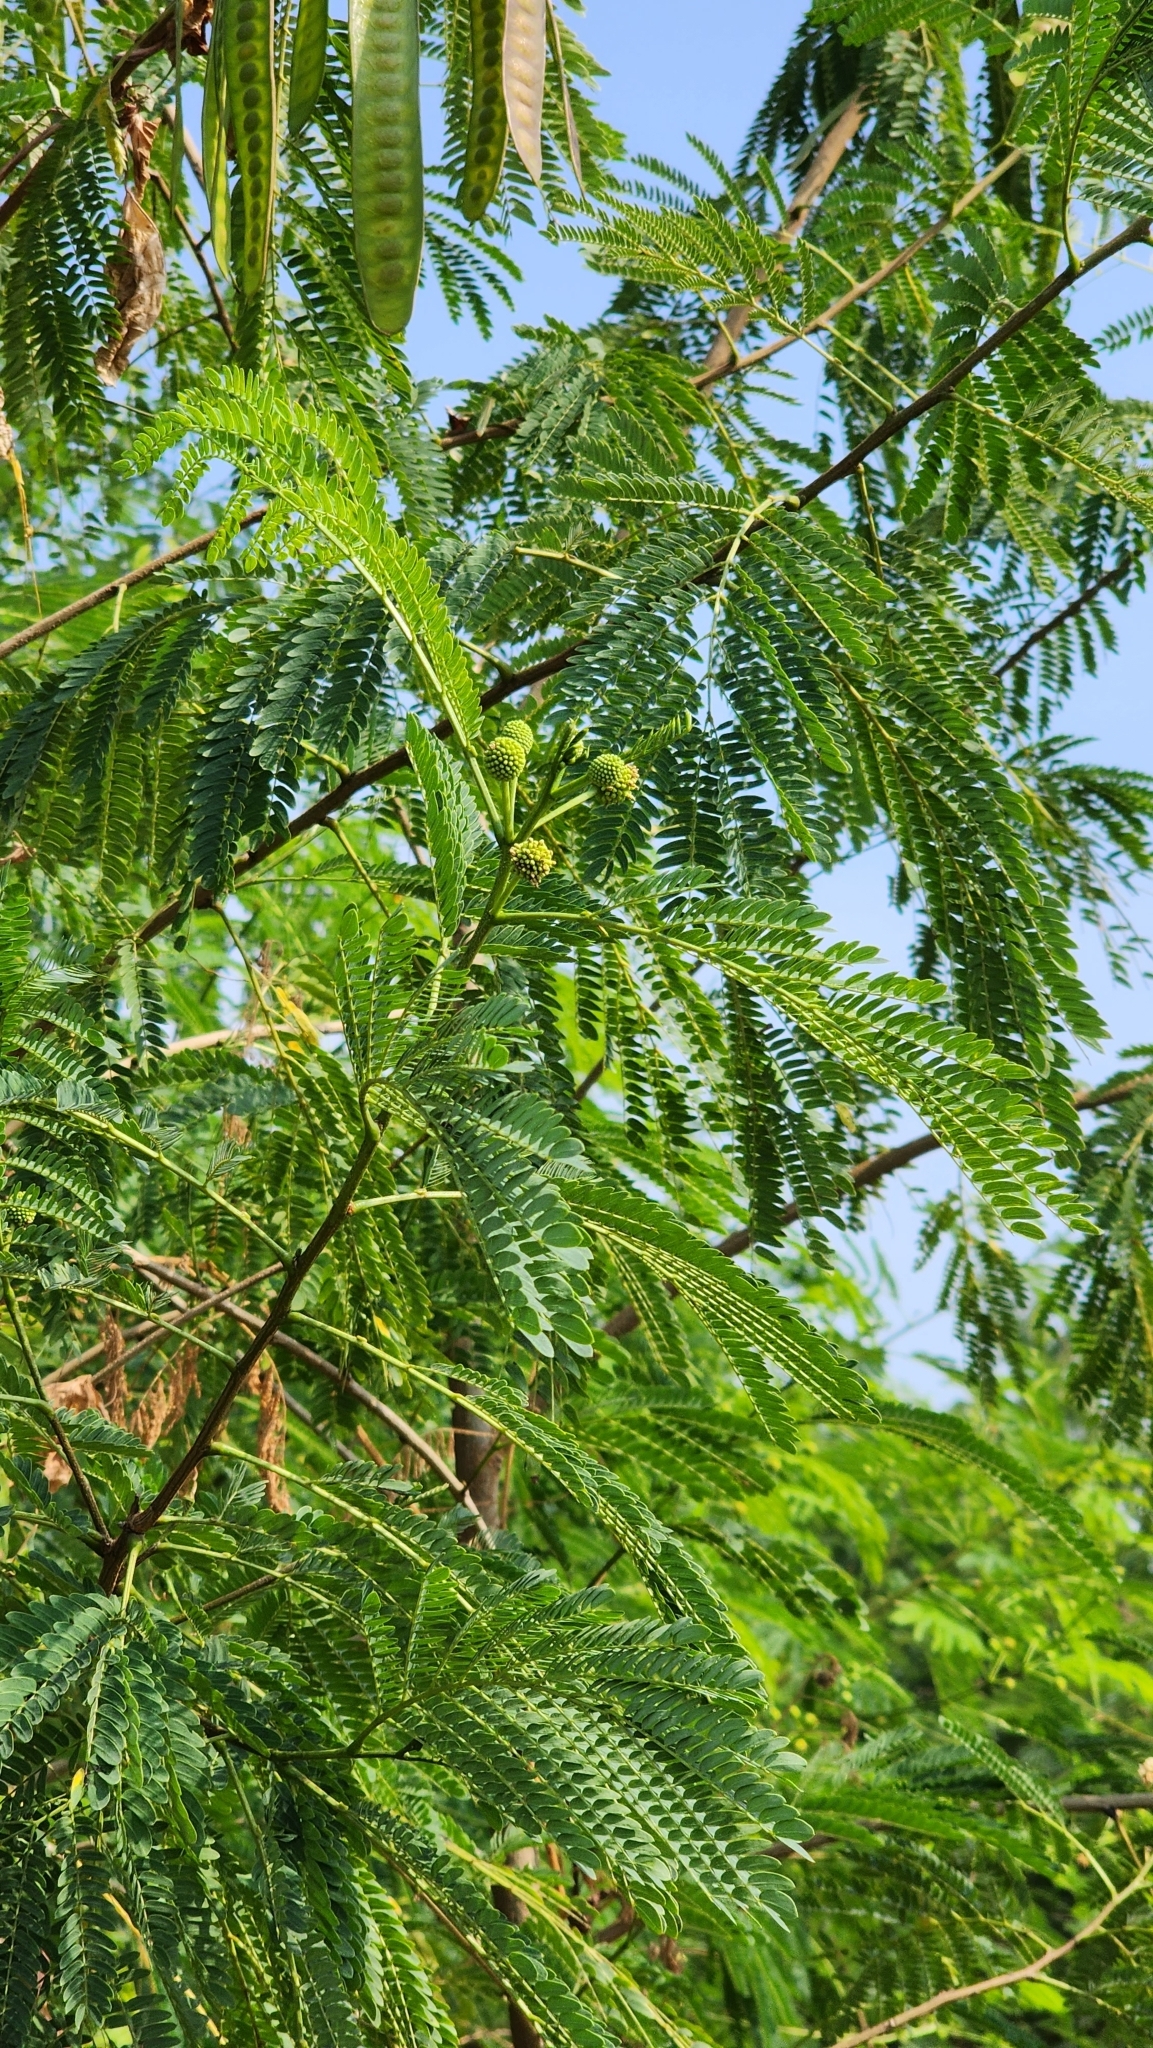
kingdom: Plantae
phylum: Tracheophyta
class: Magnoliopsida
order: Fabales
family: Fabaceae
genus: Leucaena
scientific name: Leucaena leucocephala
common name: White leadtree
